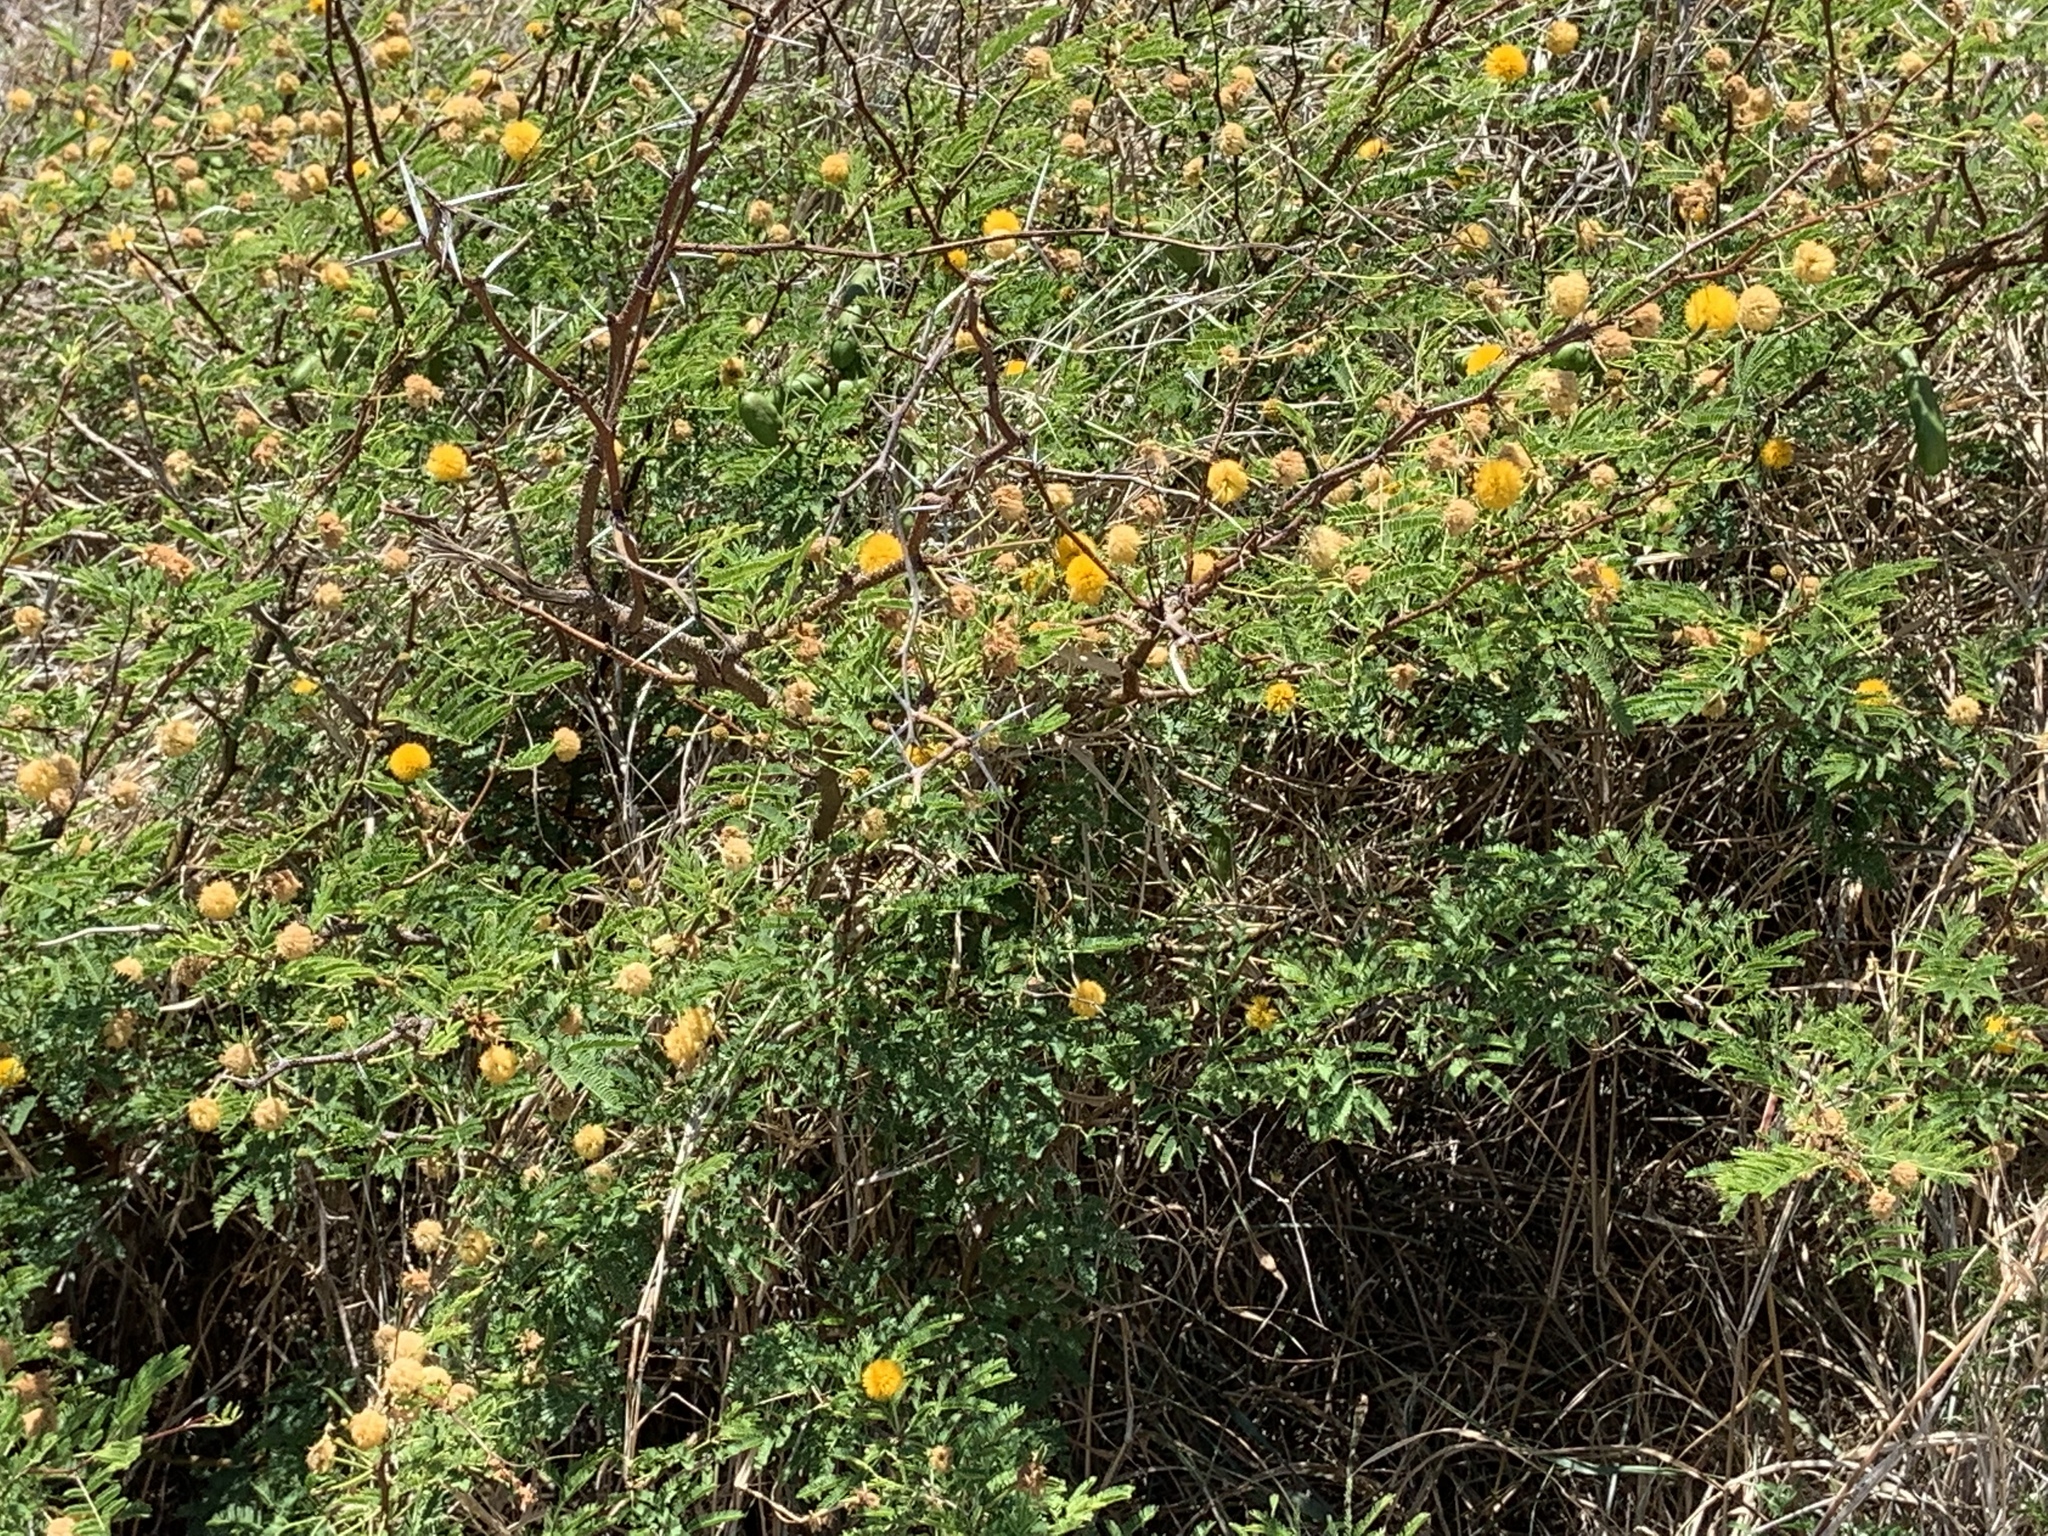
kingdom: Plantae
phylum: Tracheophyta
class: Magnoliopsida
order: Fabales
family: Fabaceae
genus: Vachellia
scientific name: Vachellia farnesiana
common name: Sweet acacia
